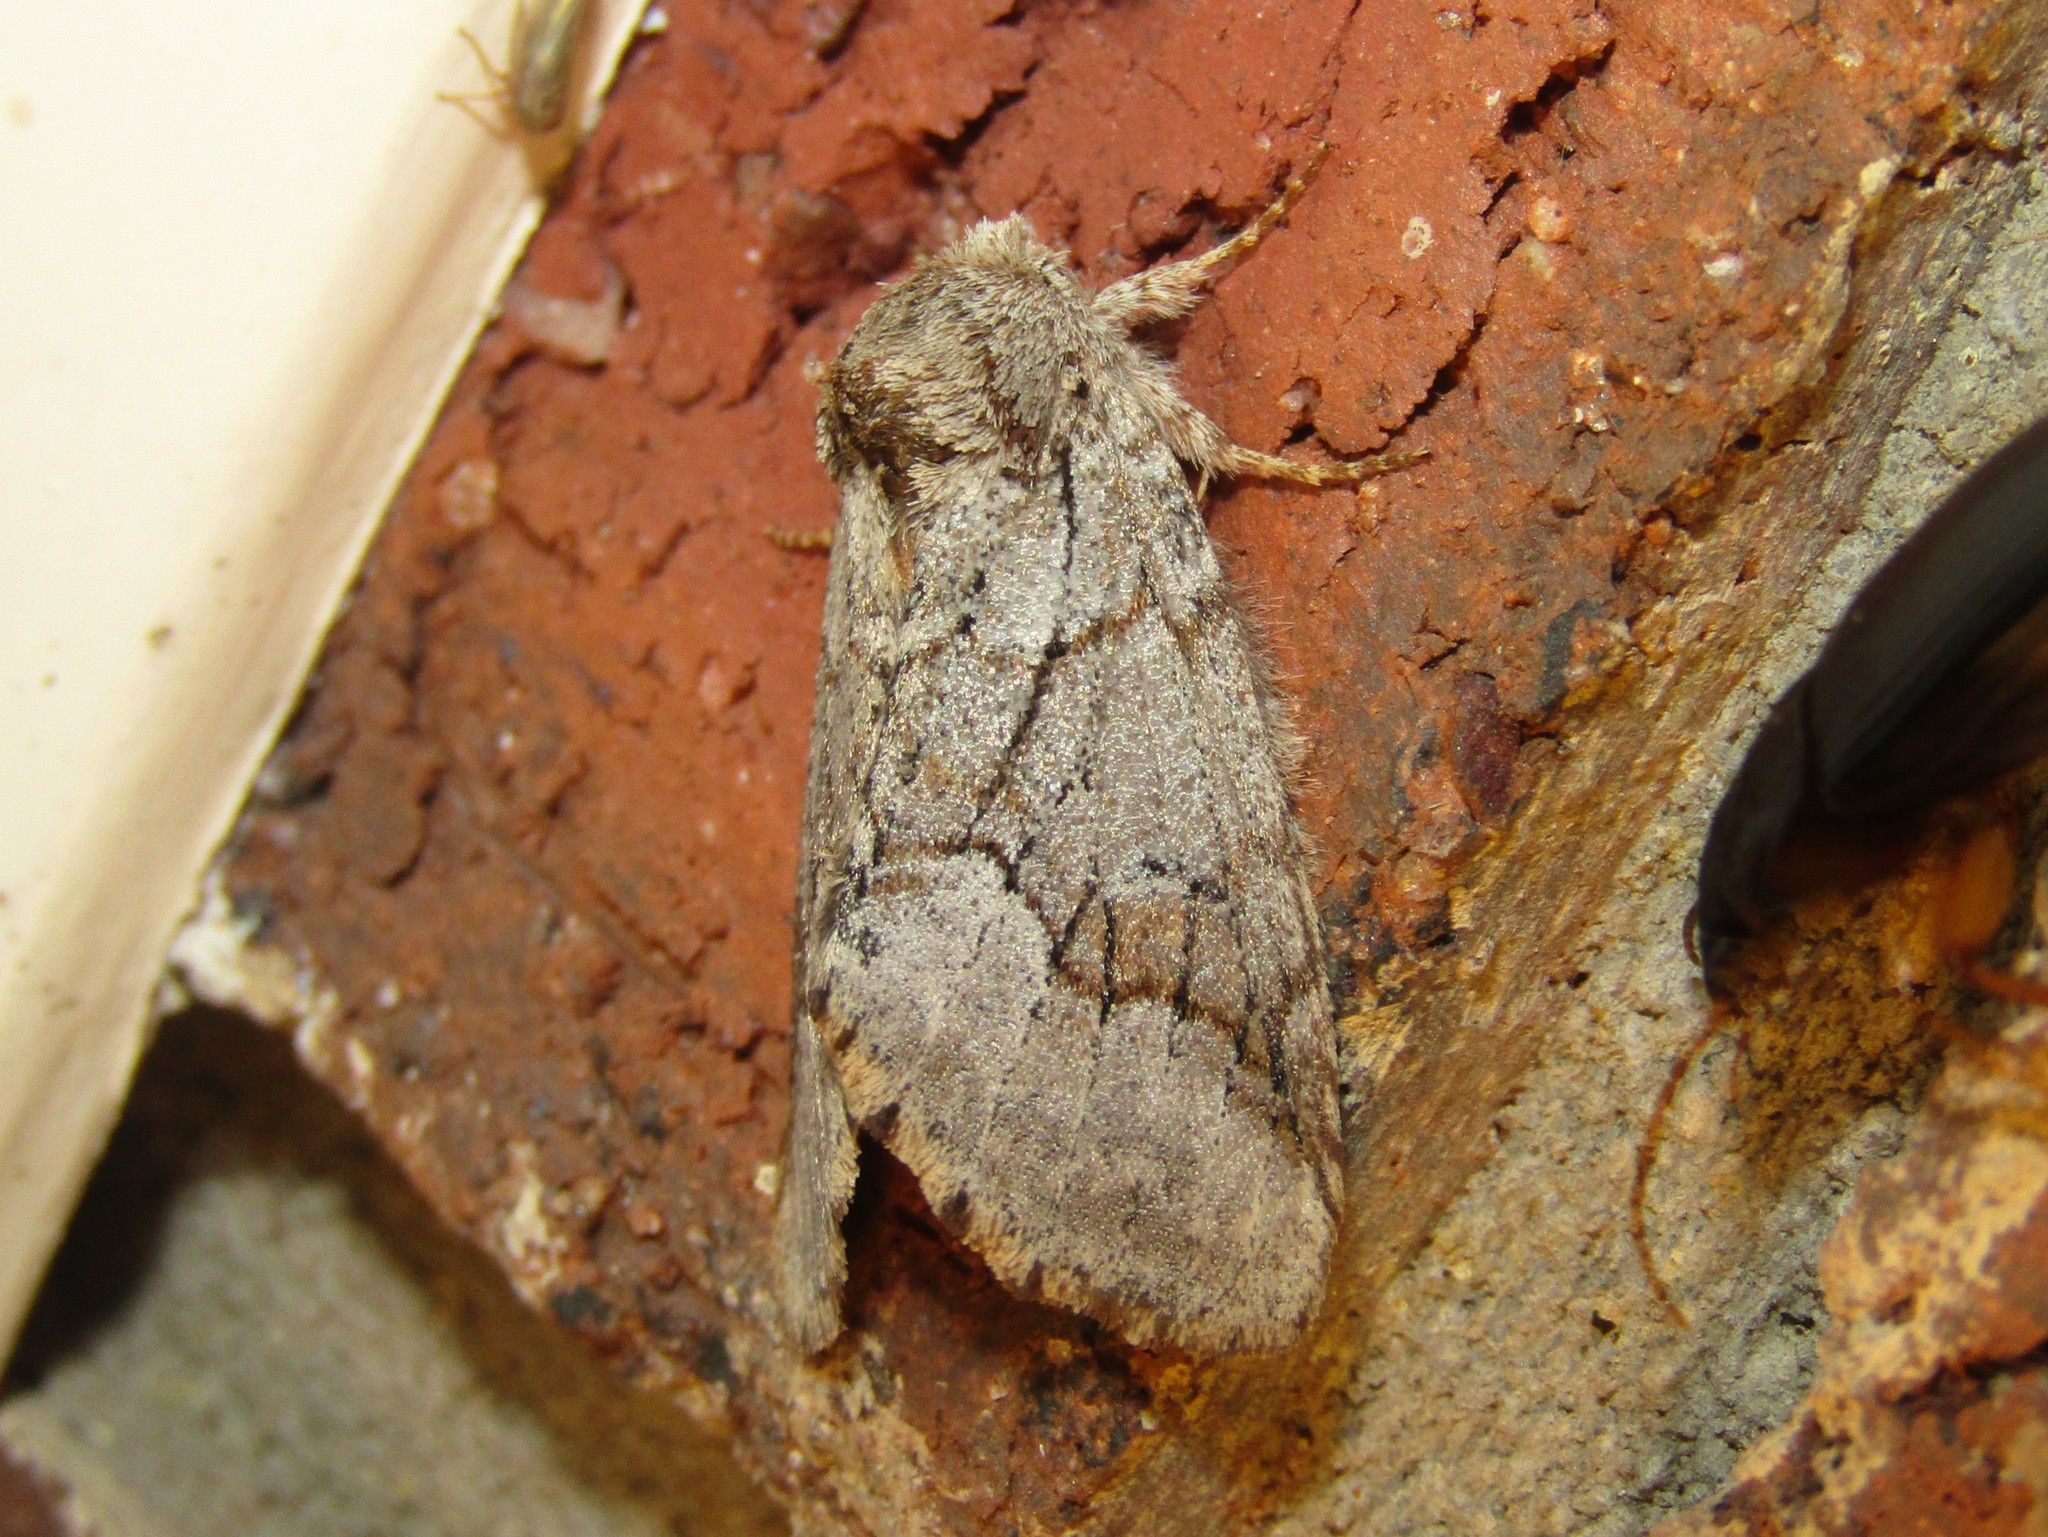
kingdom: Animalia
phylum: Arthropoda
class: Insecta
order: Lepidoptera
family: Notodontidae
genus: Lochmaeus
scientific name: Lochmaeus bilineata
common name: Double-lined prominent
